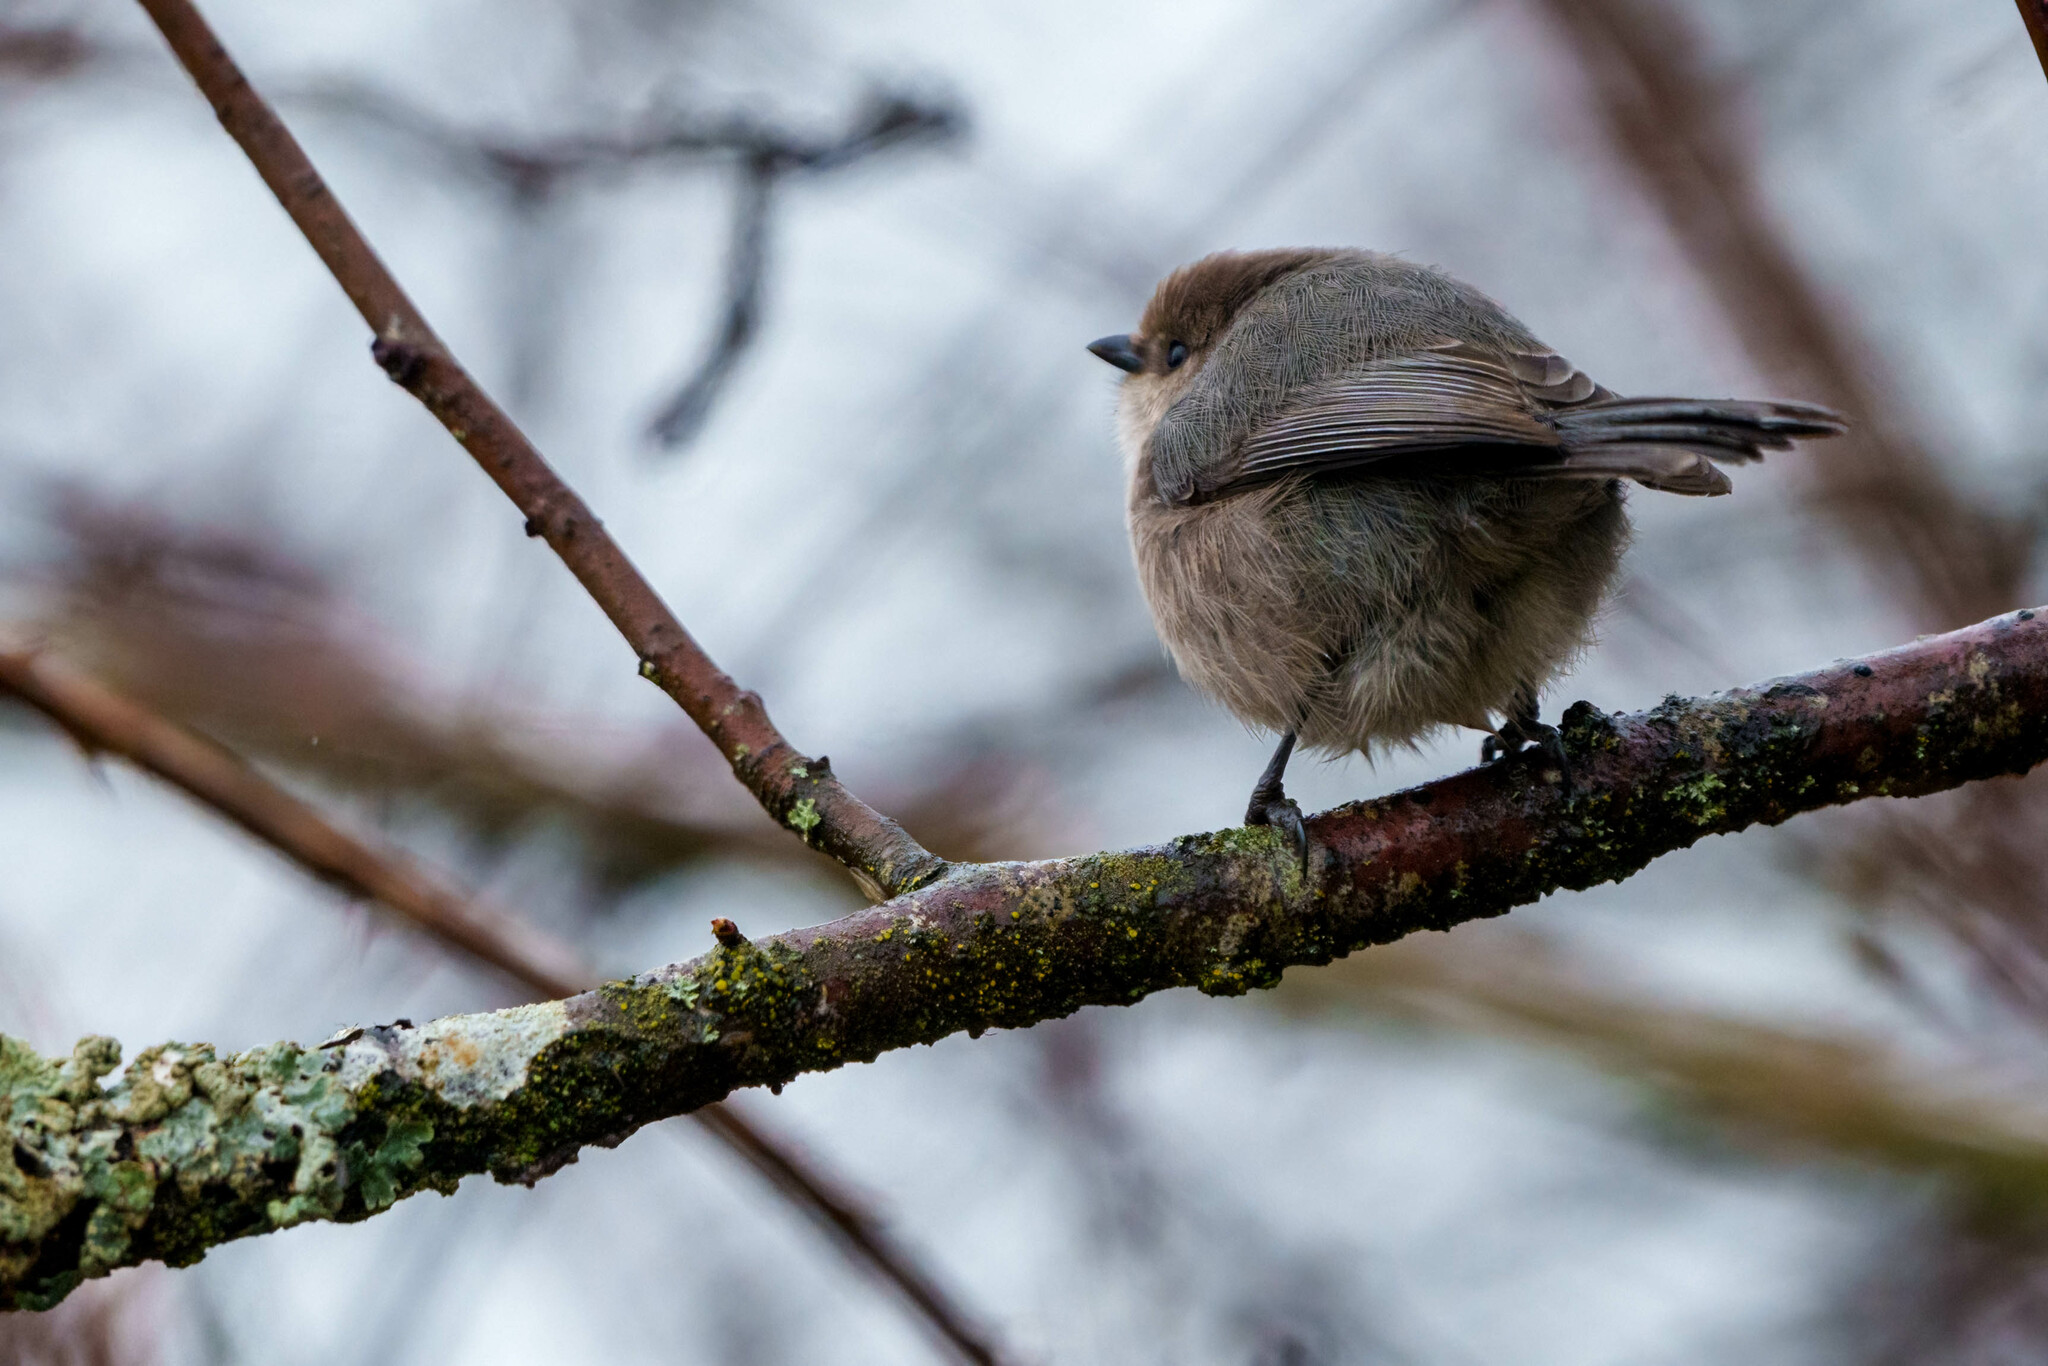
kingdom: Animalia
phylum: Chordata
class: Aves
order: Passeriformes
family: Aegithalidae
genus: Psaltriparus
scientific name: Psaltriparus minimus
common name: American bushtit
